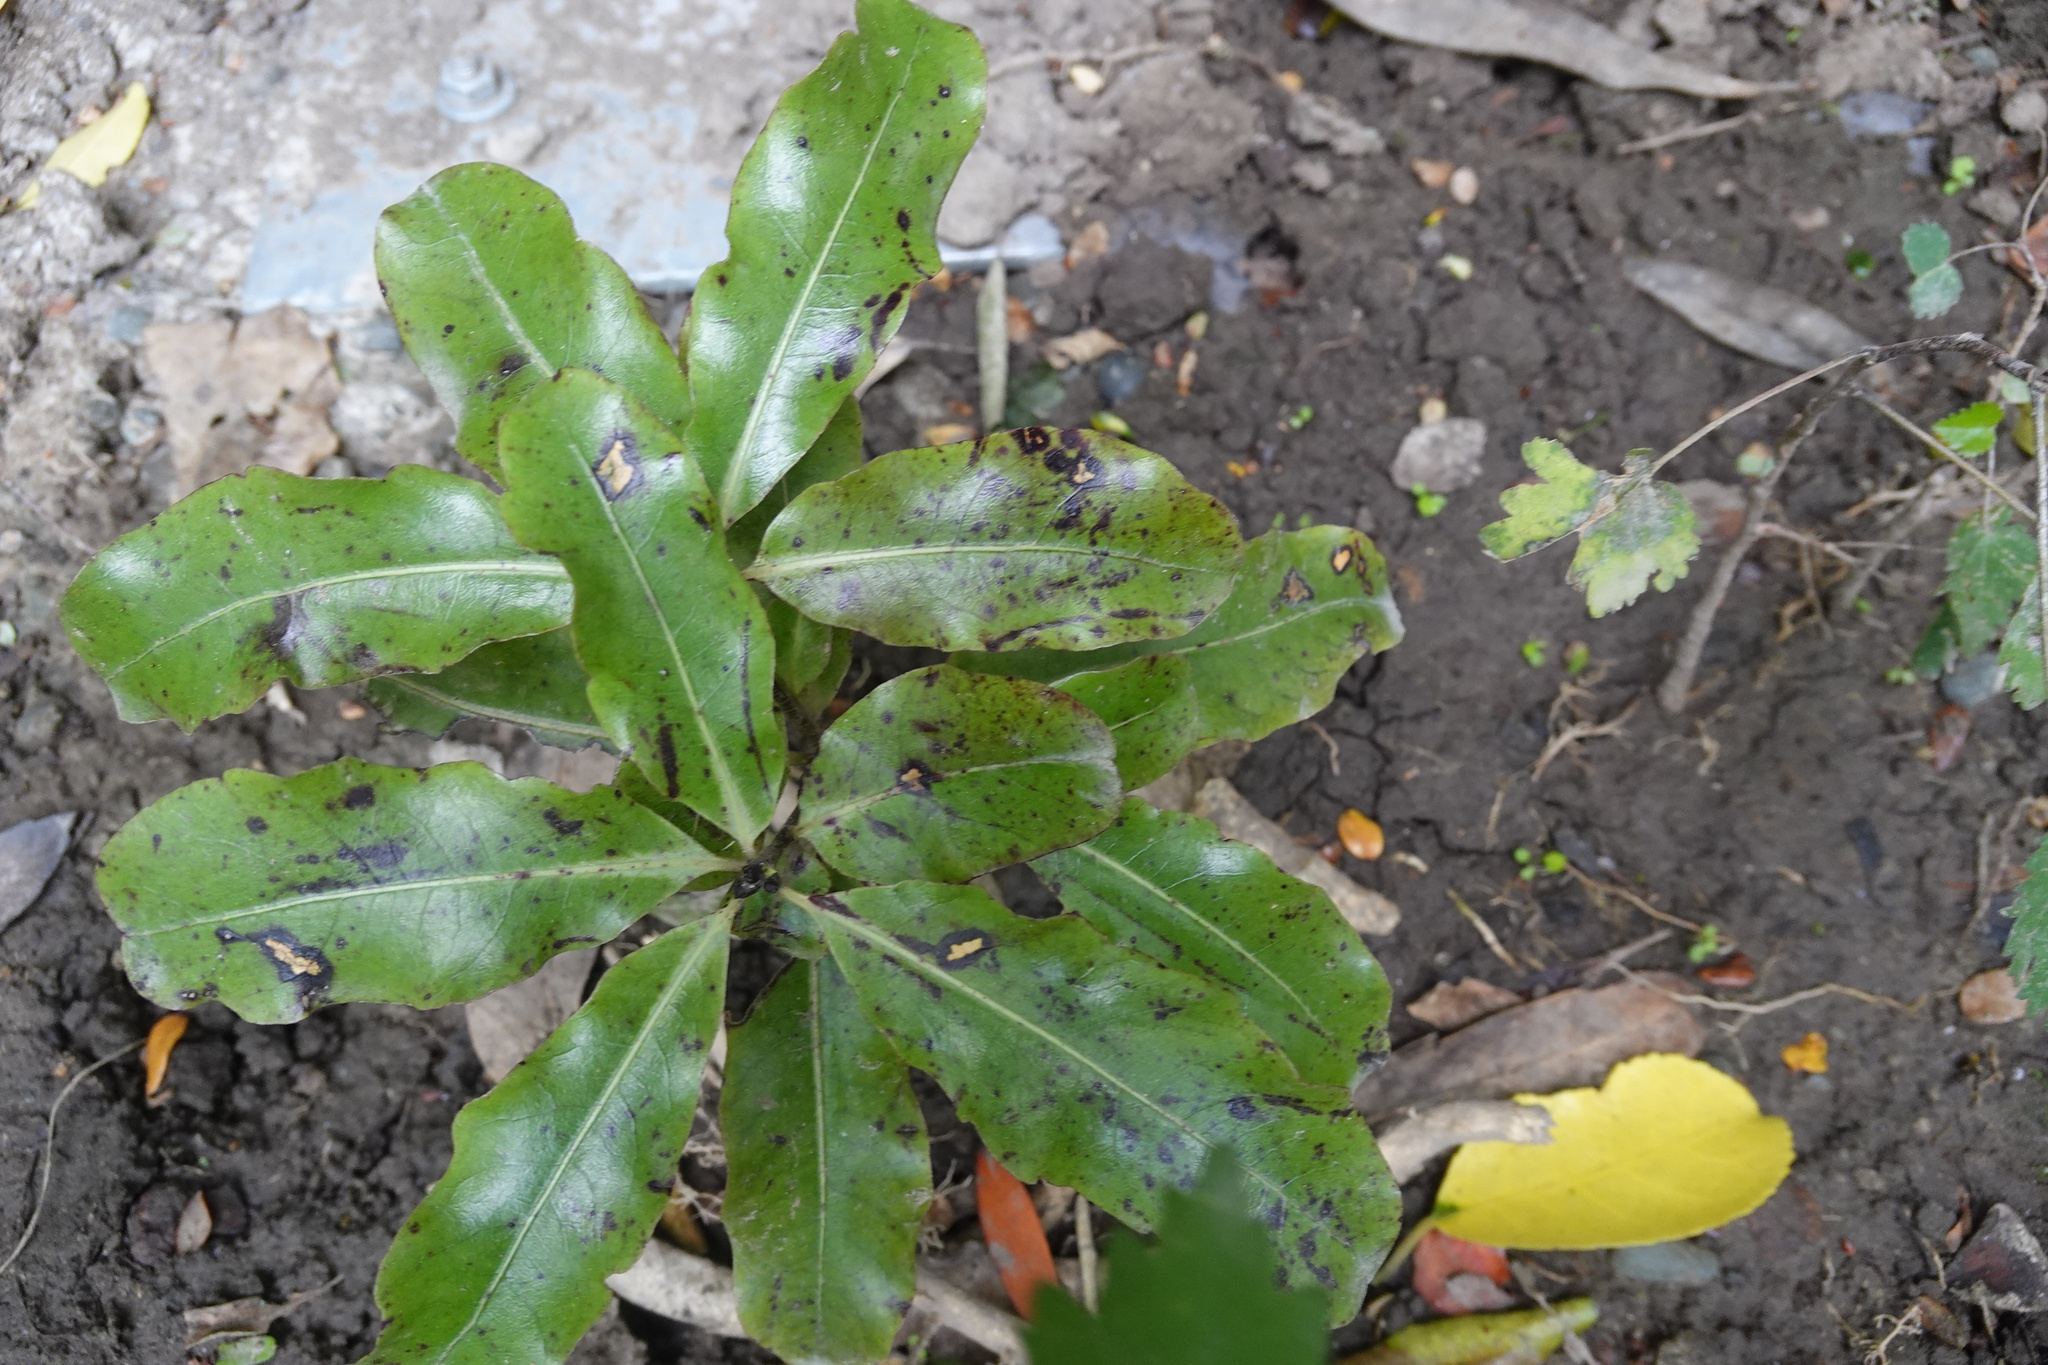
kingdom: Plantae
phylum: Tracheophyta
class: Magnoliopsida
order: Apiales
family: Pittosporaceae
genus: Pittosporum
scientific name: Pittosporum eugenioides
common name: Lemonwood
